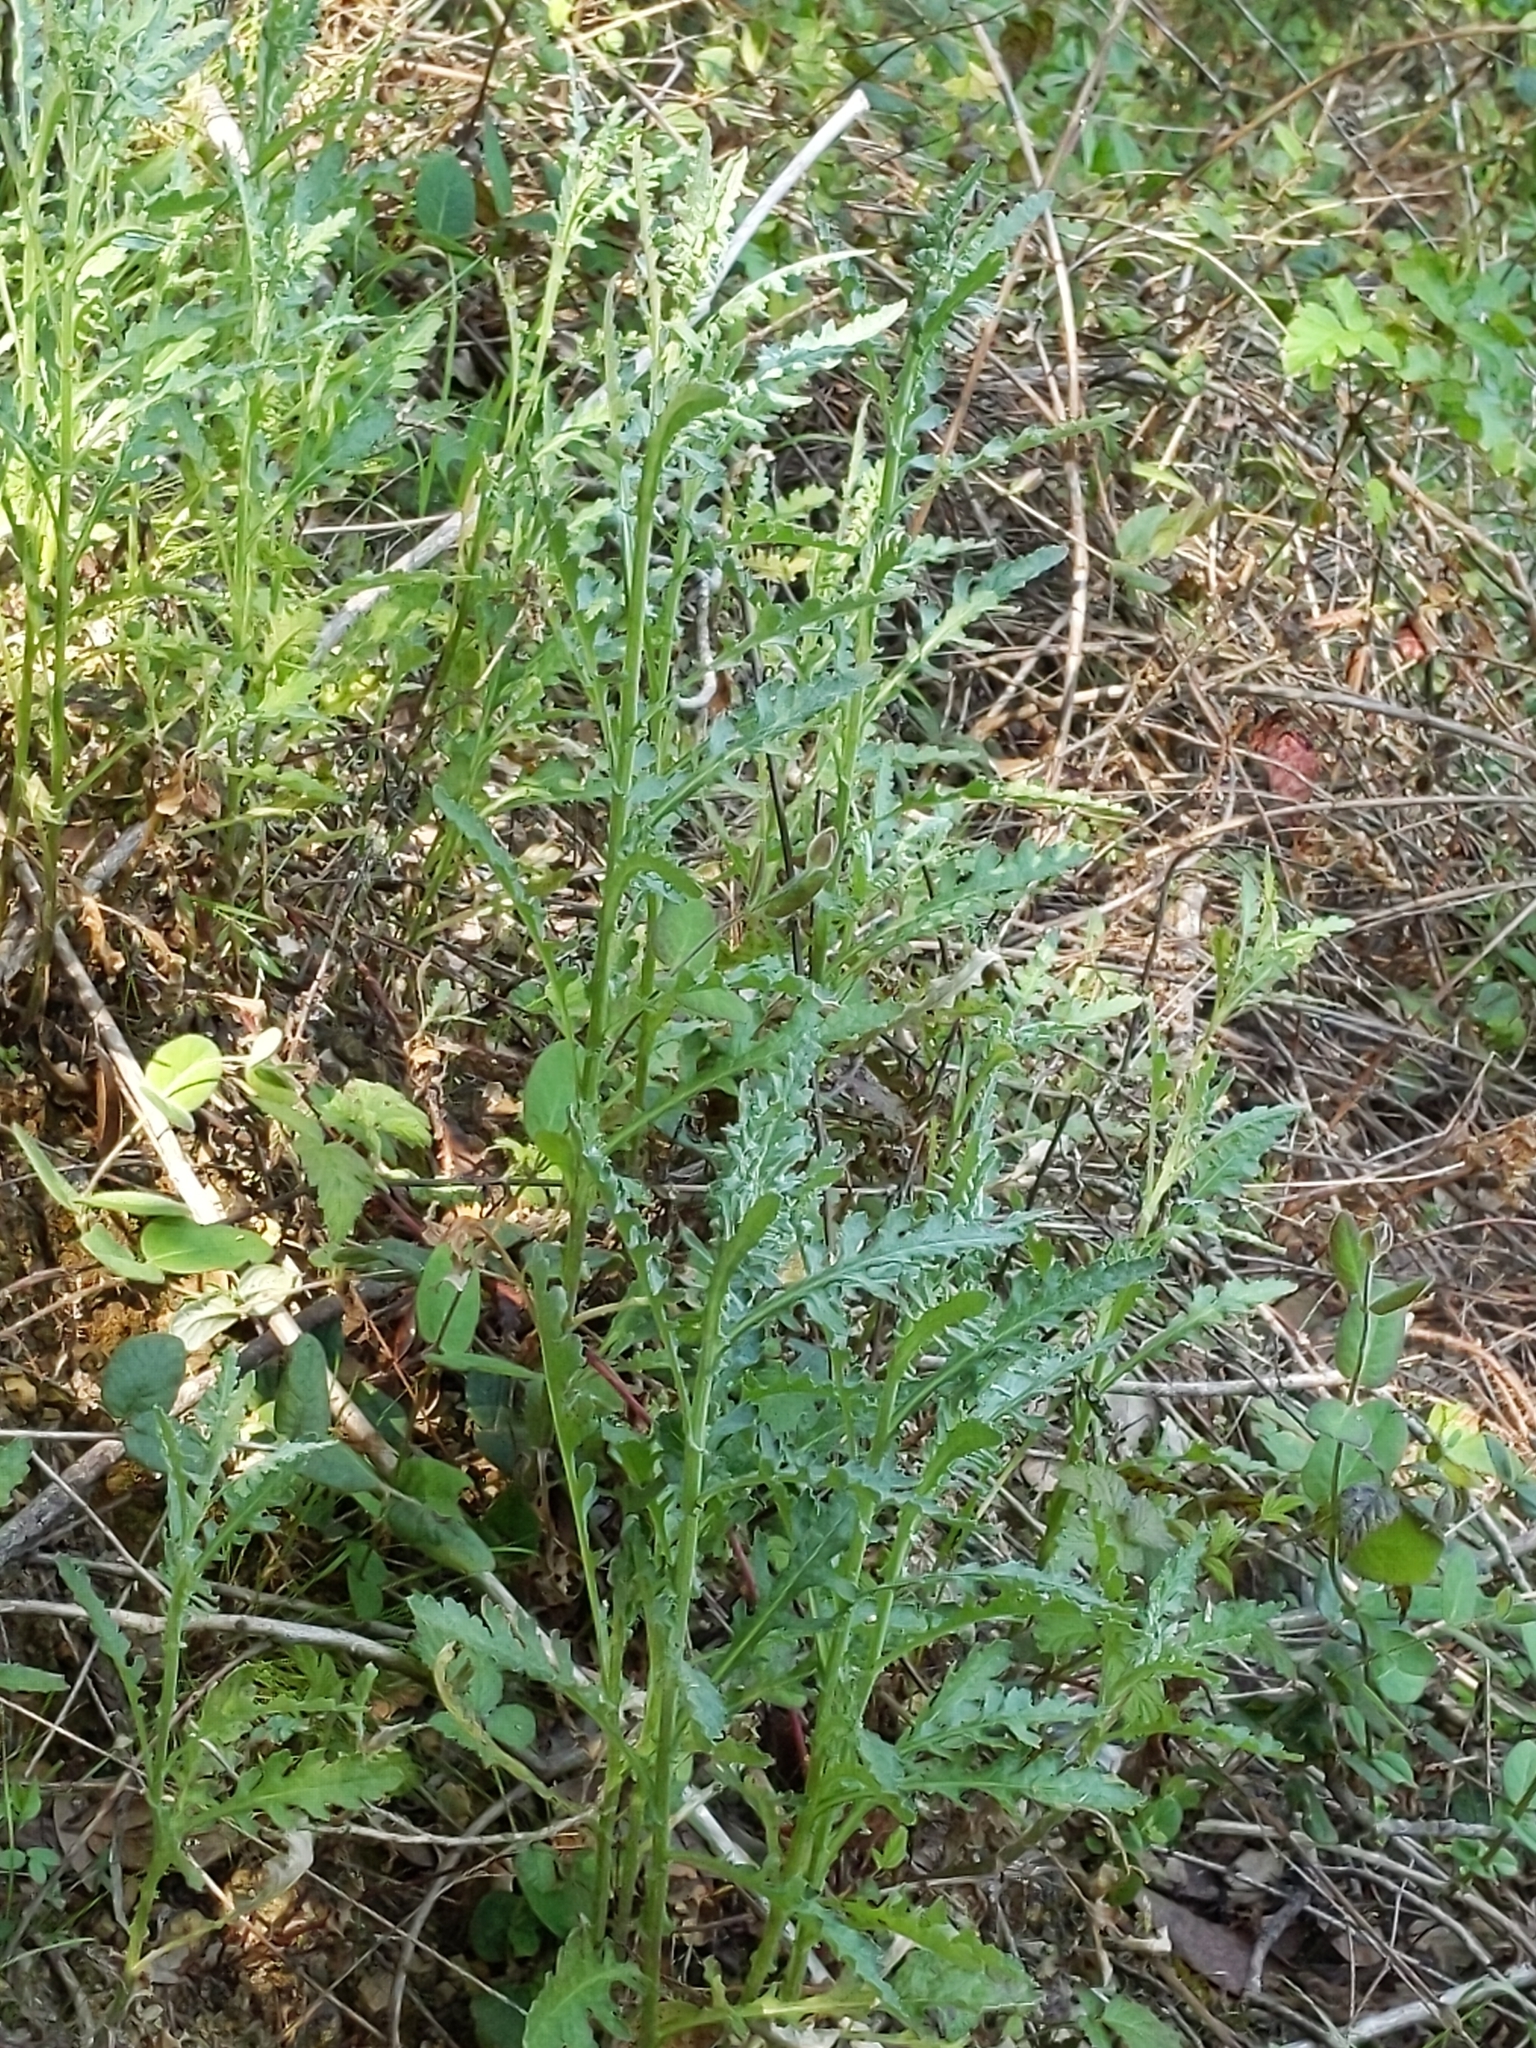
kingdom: Plantae
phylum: Tracheophyta
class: Magnoliopsida
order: Asterales
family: Asteraceae
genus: Senecio
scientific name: Senecio glomeratus
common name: Cutleaf burnweed
